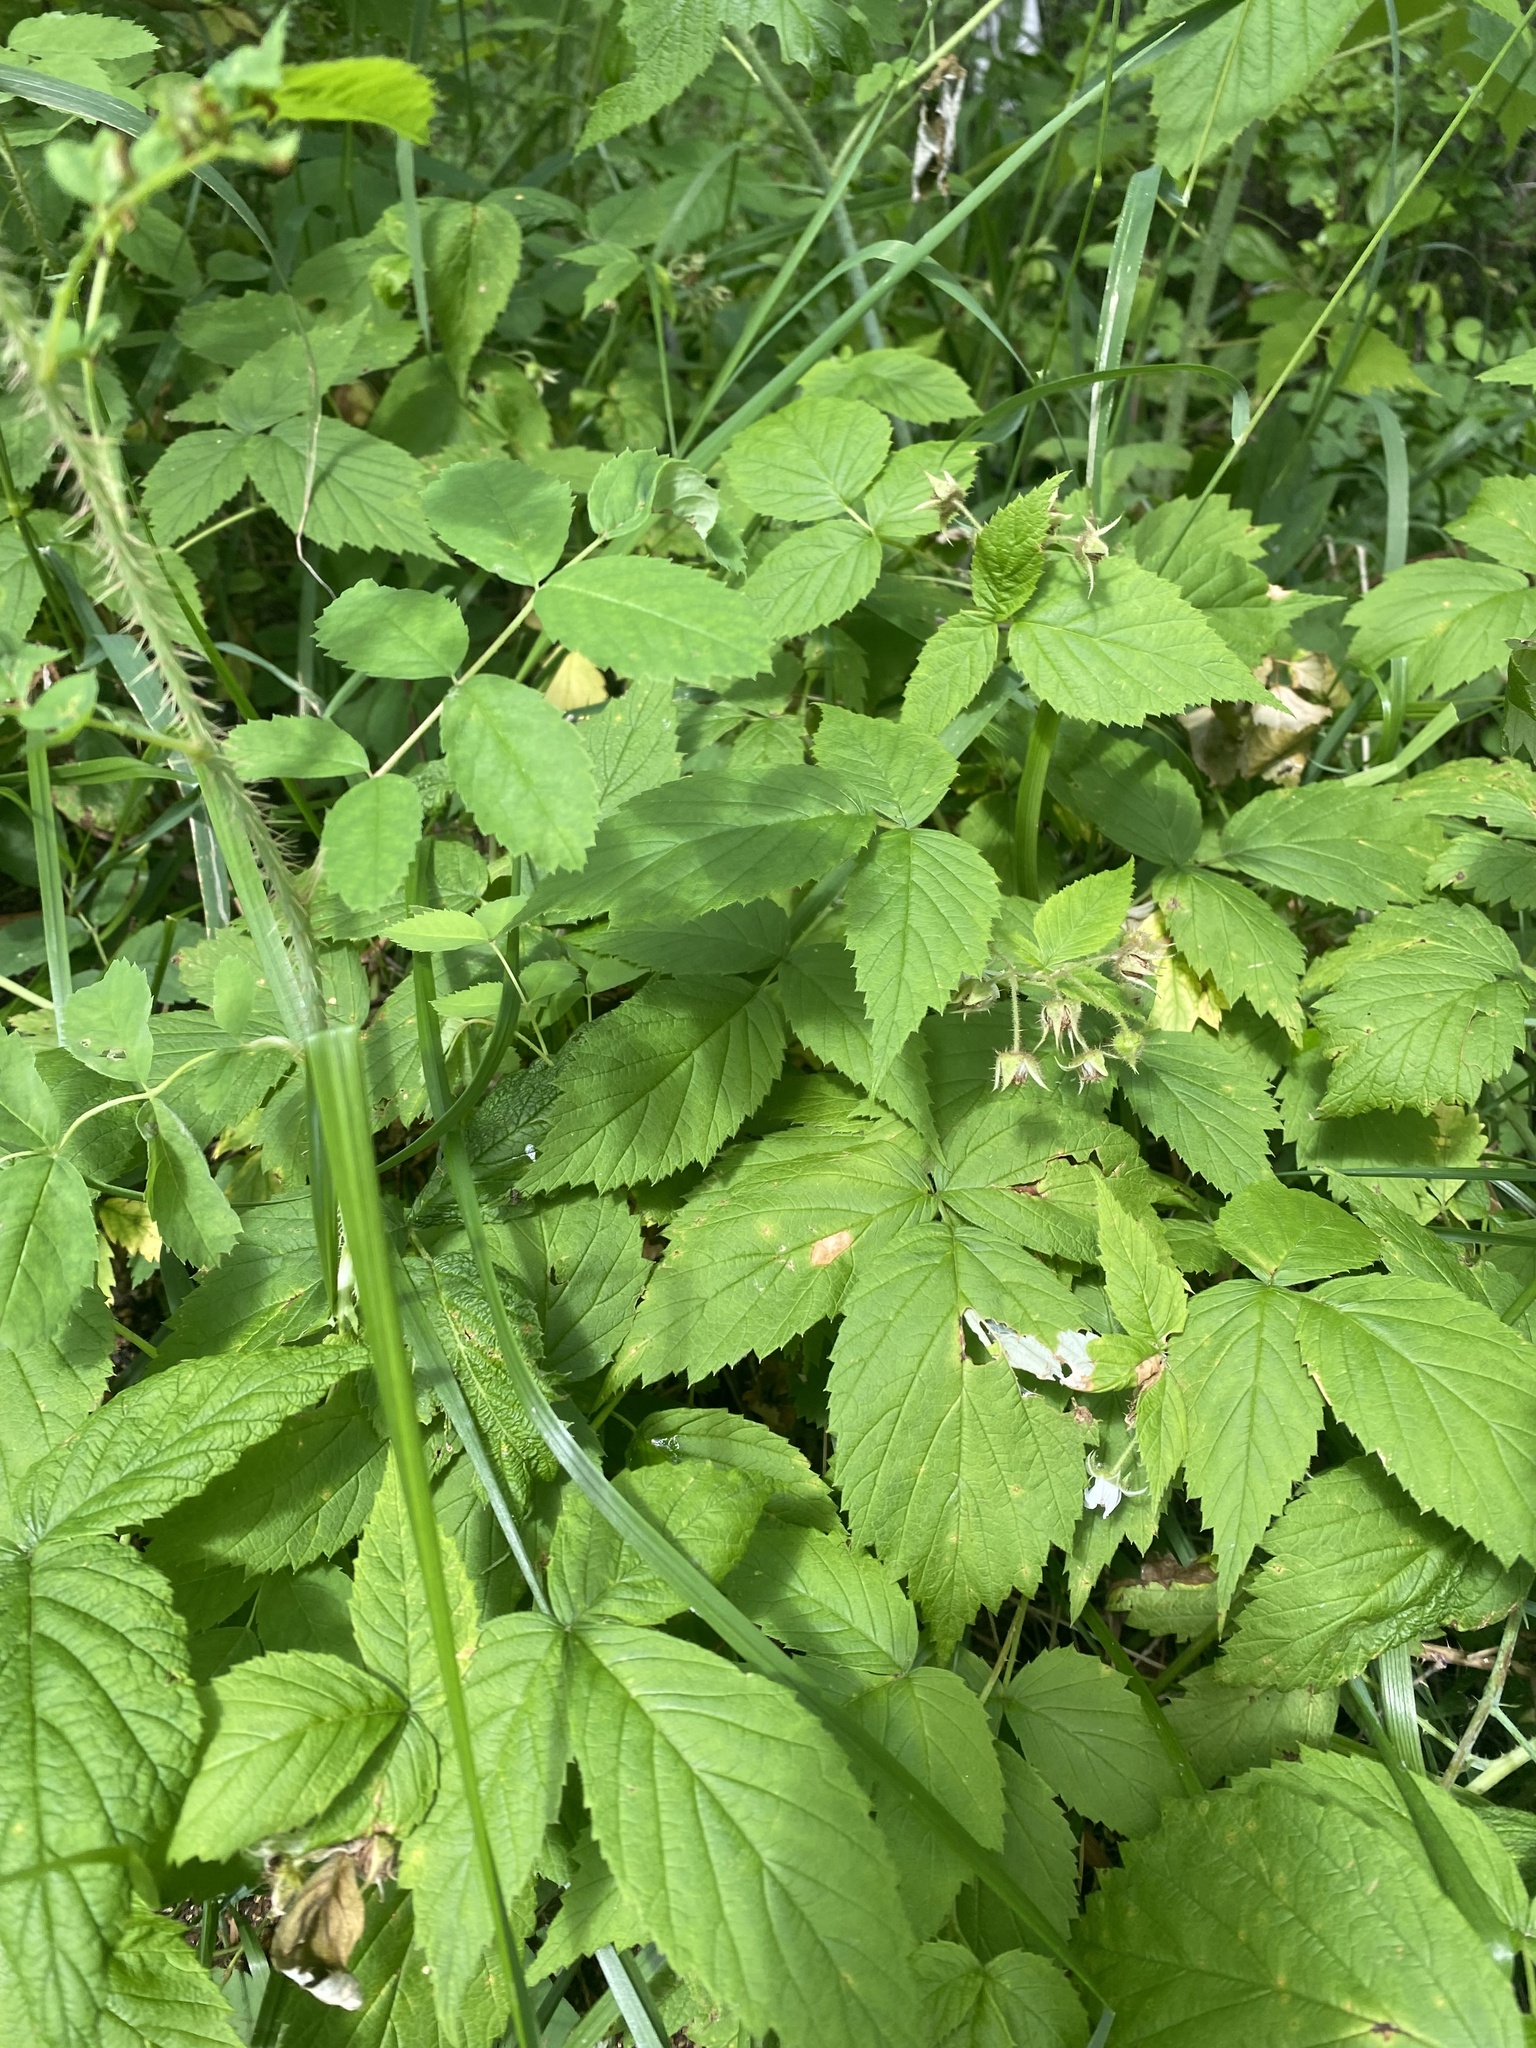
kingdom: Plantae
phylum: Tracheophyta
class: Magnoliopsida
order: Rosales
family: Rosaceae
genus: Rubus
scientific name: Rubus sachalinensis
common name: Red raspberry
